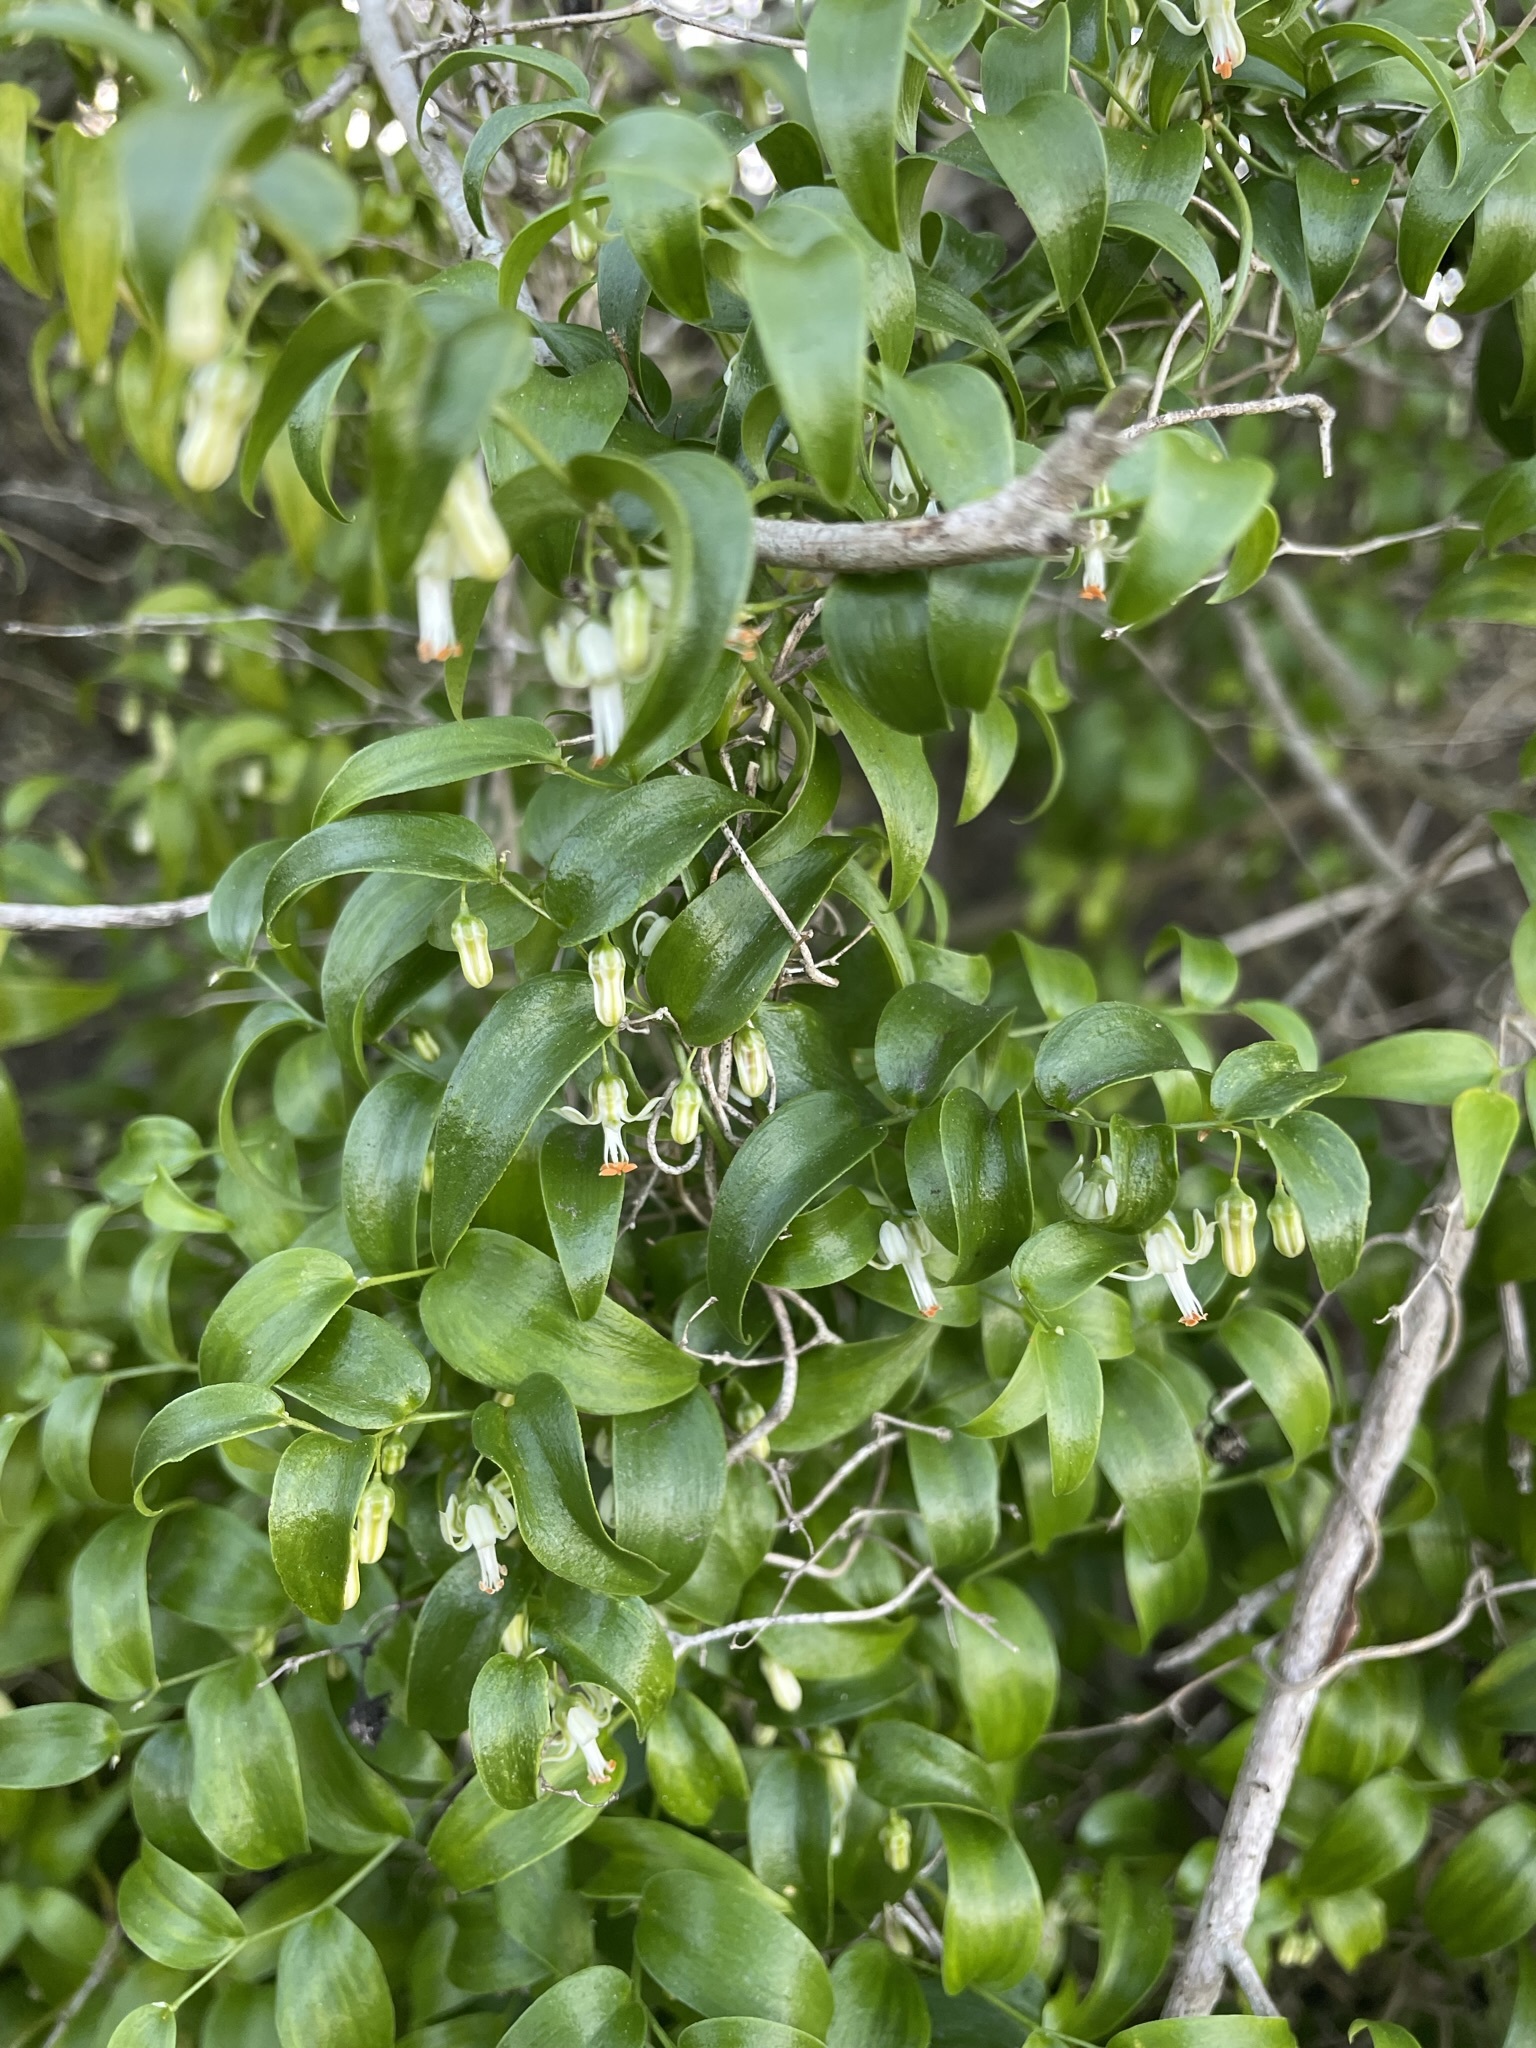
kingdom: Plantae
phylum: Tracheophyta
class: Liliopsida
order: Asparagales
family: Asparagaceae
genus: Asparagus
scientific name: Asparagus asparagoides
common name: African asparagus fern
